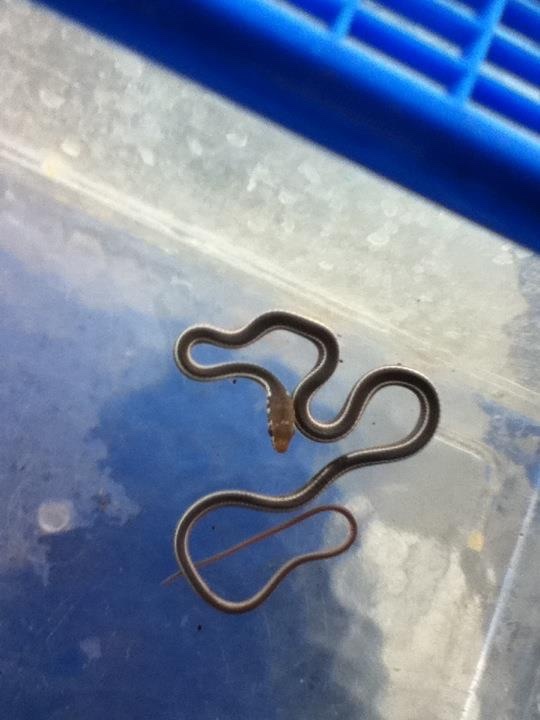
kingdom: Animalia
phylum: Chordata
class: Squamata
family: Colubridae
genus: Masticophis
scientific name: Masticophis lateralis
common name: Striped racer
